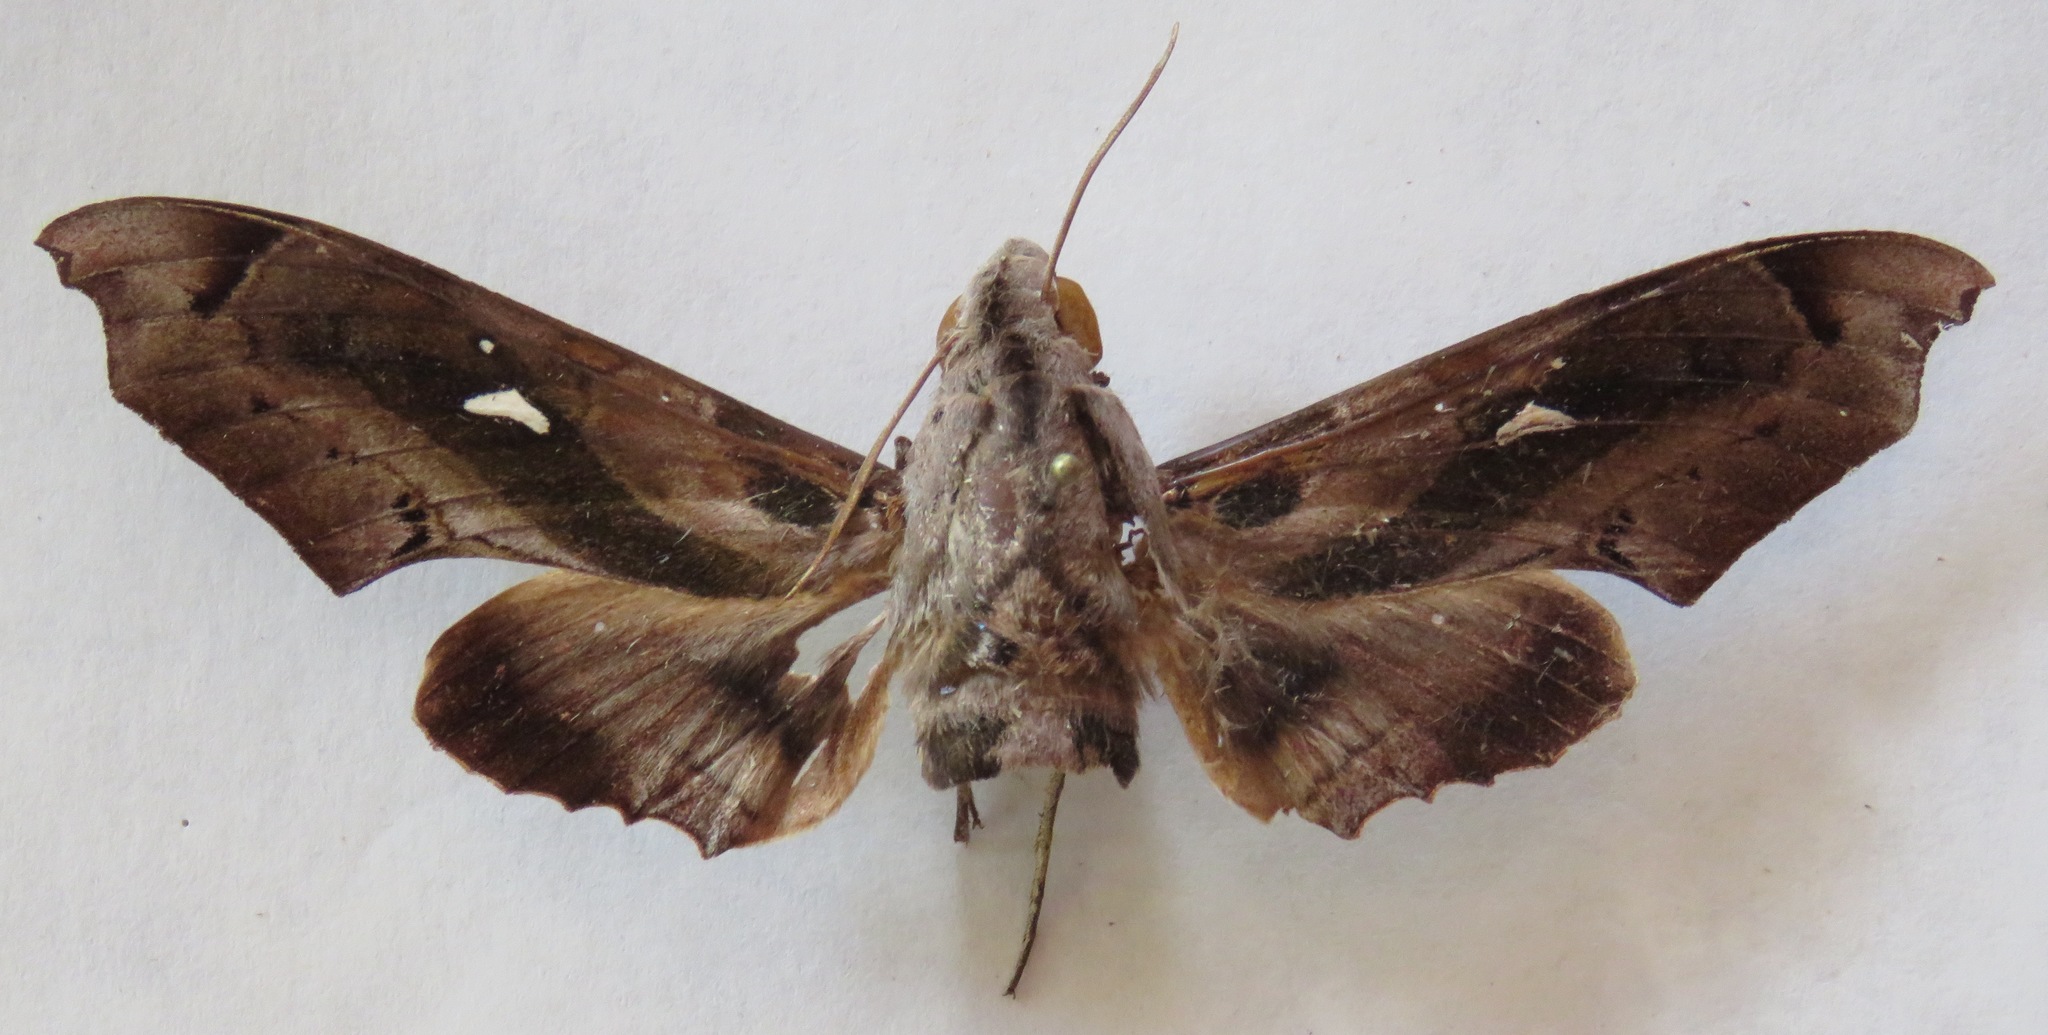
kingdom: Animalia
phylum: Arthropoda
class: Insecta
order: Lepidoptera
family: Sphingidae
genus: Madoryx
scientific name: Madoryx plutonius
